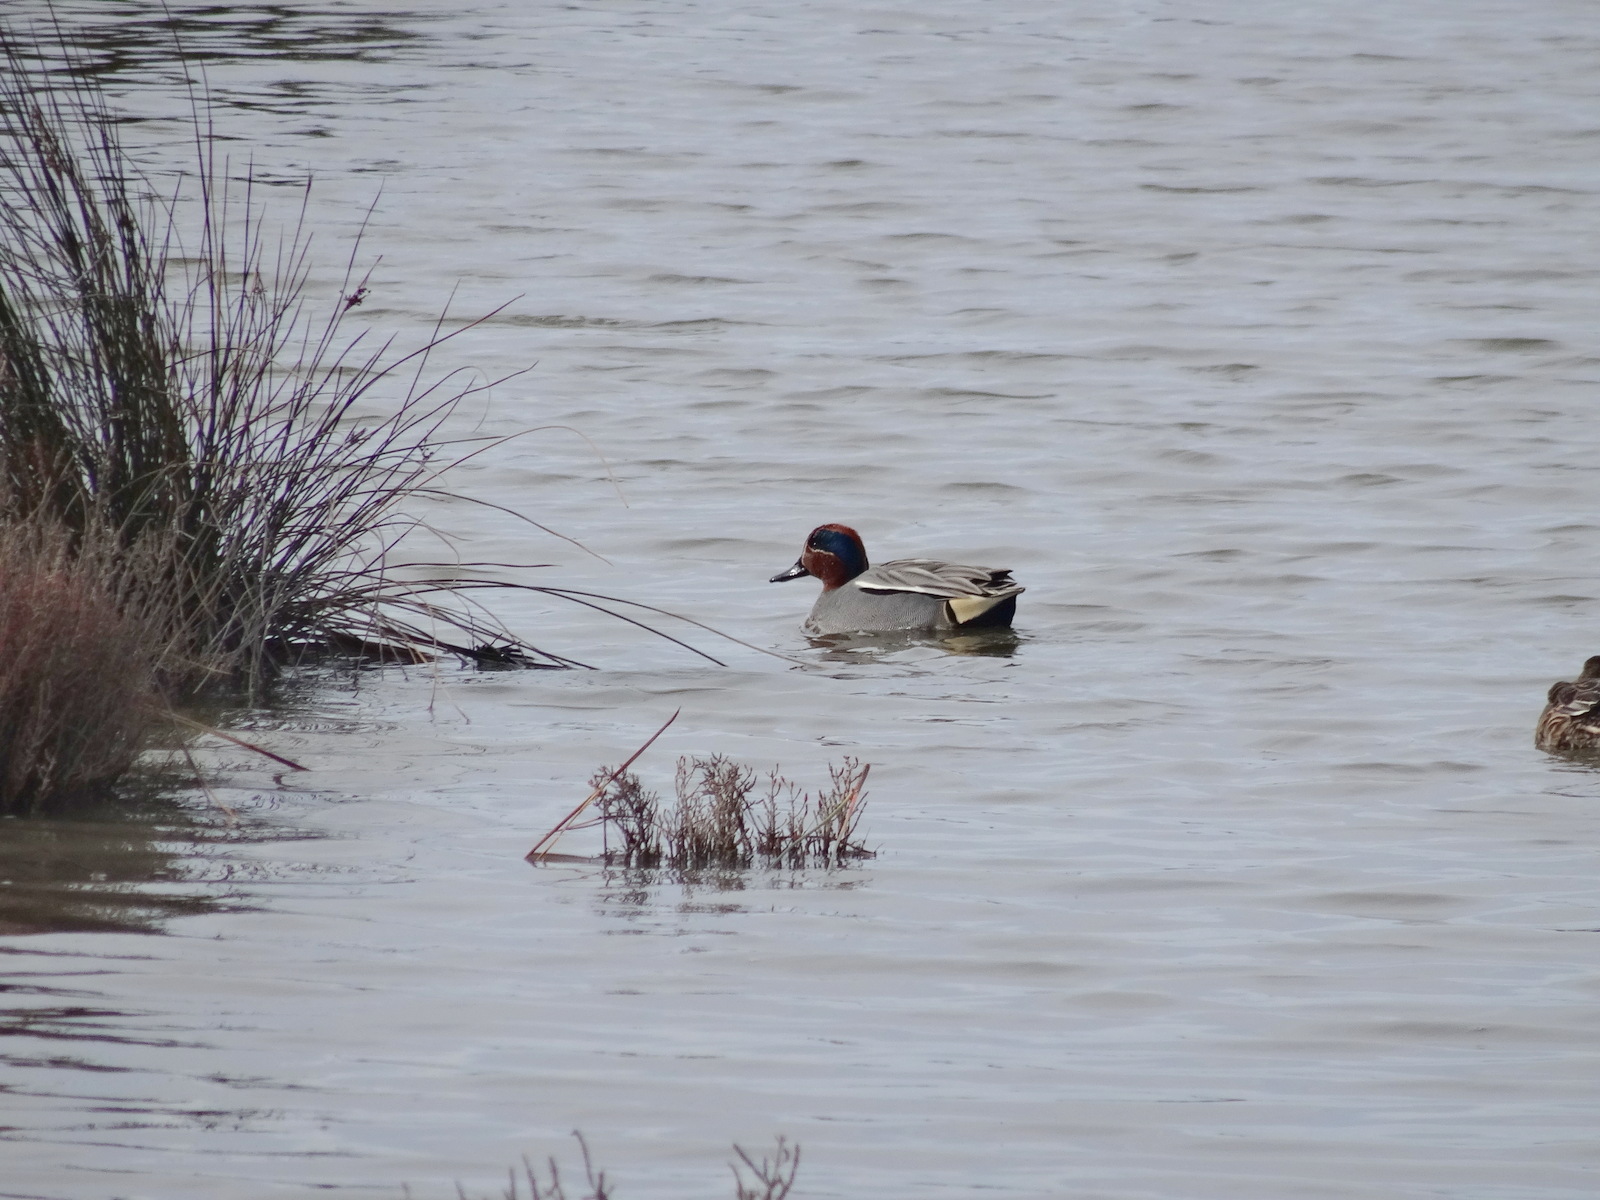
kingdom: Animalia
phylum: Chordata
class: Aves
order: Anseriformes
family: Anatidae
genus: Anas
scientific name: Anas crecca
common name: Eurasian teal
